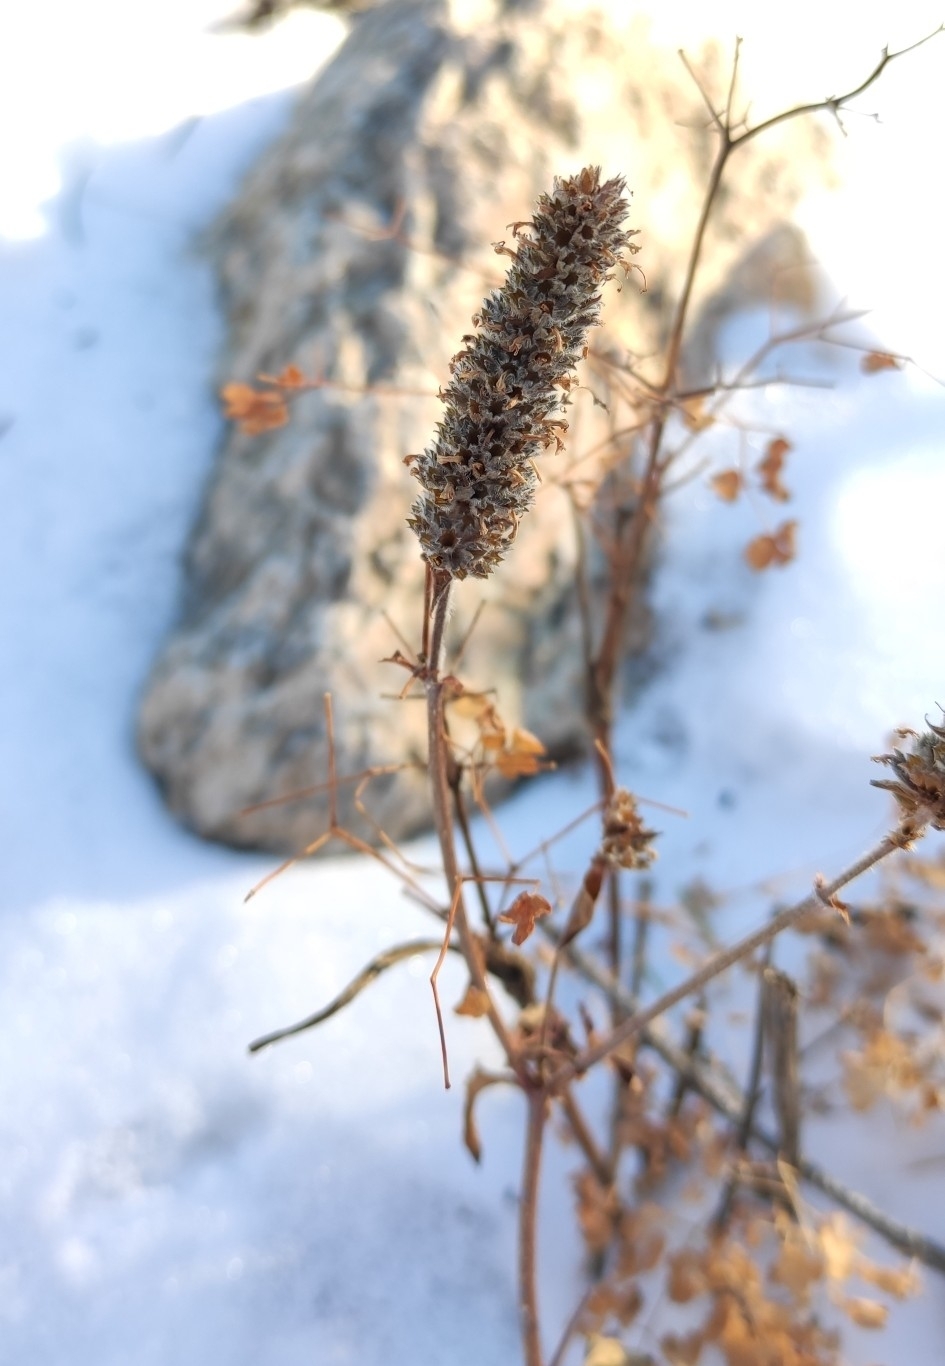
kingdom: Plantae
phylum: Tracheophyta
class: Magnoliopsida
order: Lamiales
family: Lamiaceae
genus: Nepeta
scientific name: Nepeta multifida
